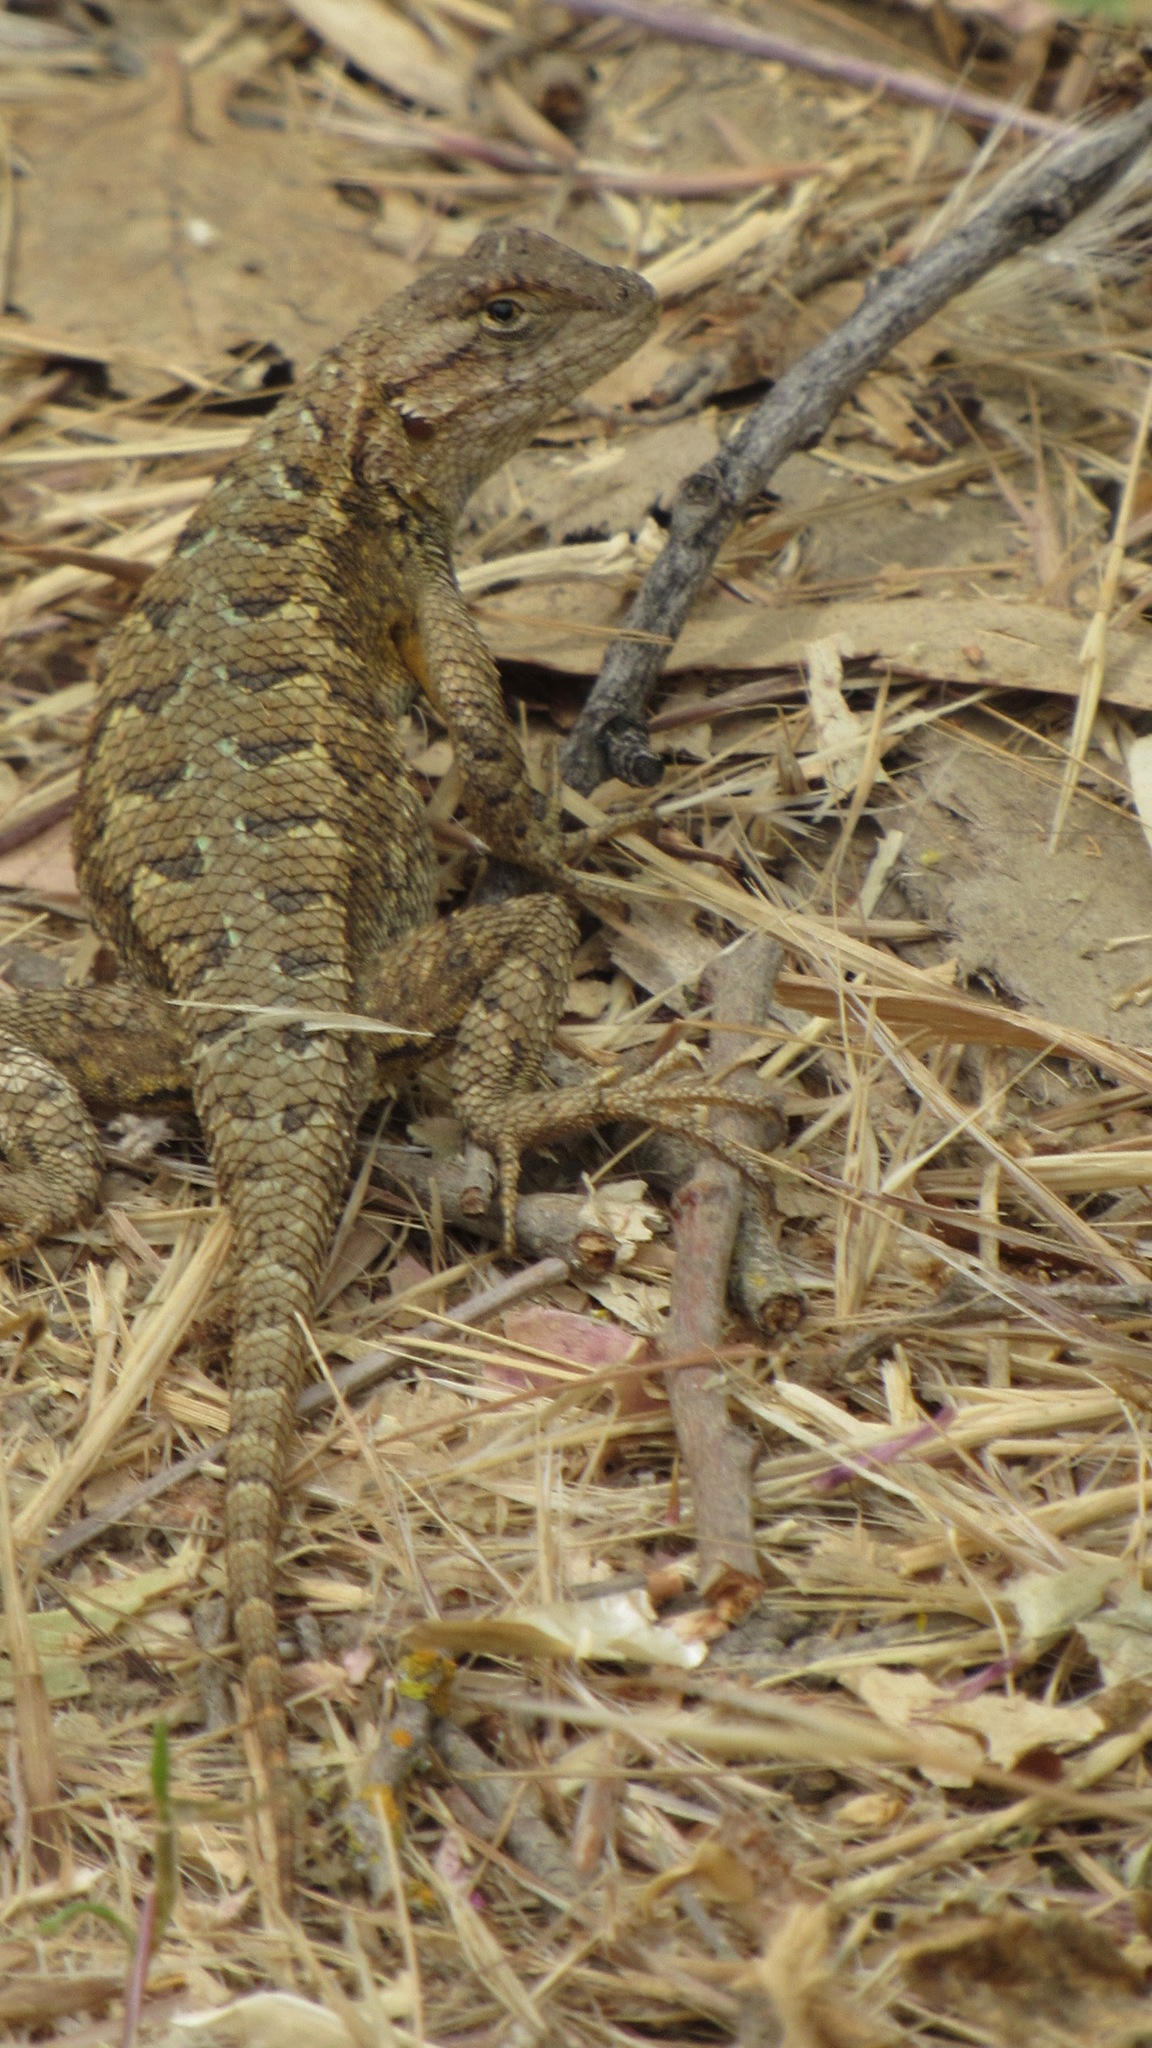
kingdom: Animalia
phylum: Chordata
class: Squamata
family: Phrynosomatidae
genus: Sceloporus
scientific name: Sceloporus occidentalis
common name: Western fence lizard
